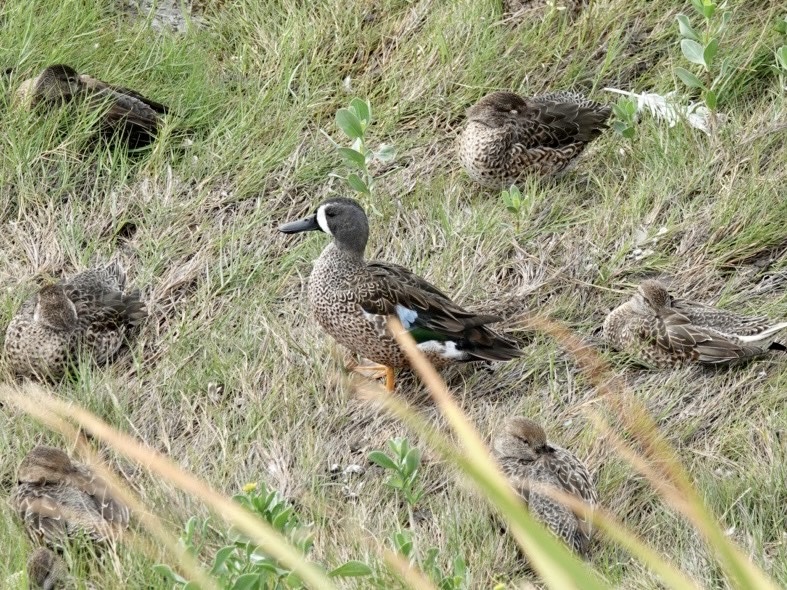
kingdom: Animalia
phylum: Chordata
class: Aves
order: Anseriformes
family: Anatidae
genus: Spatula
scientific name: Spatula discors
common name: Blue-winged teal
